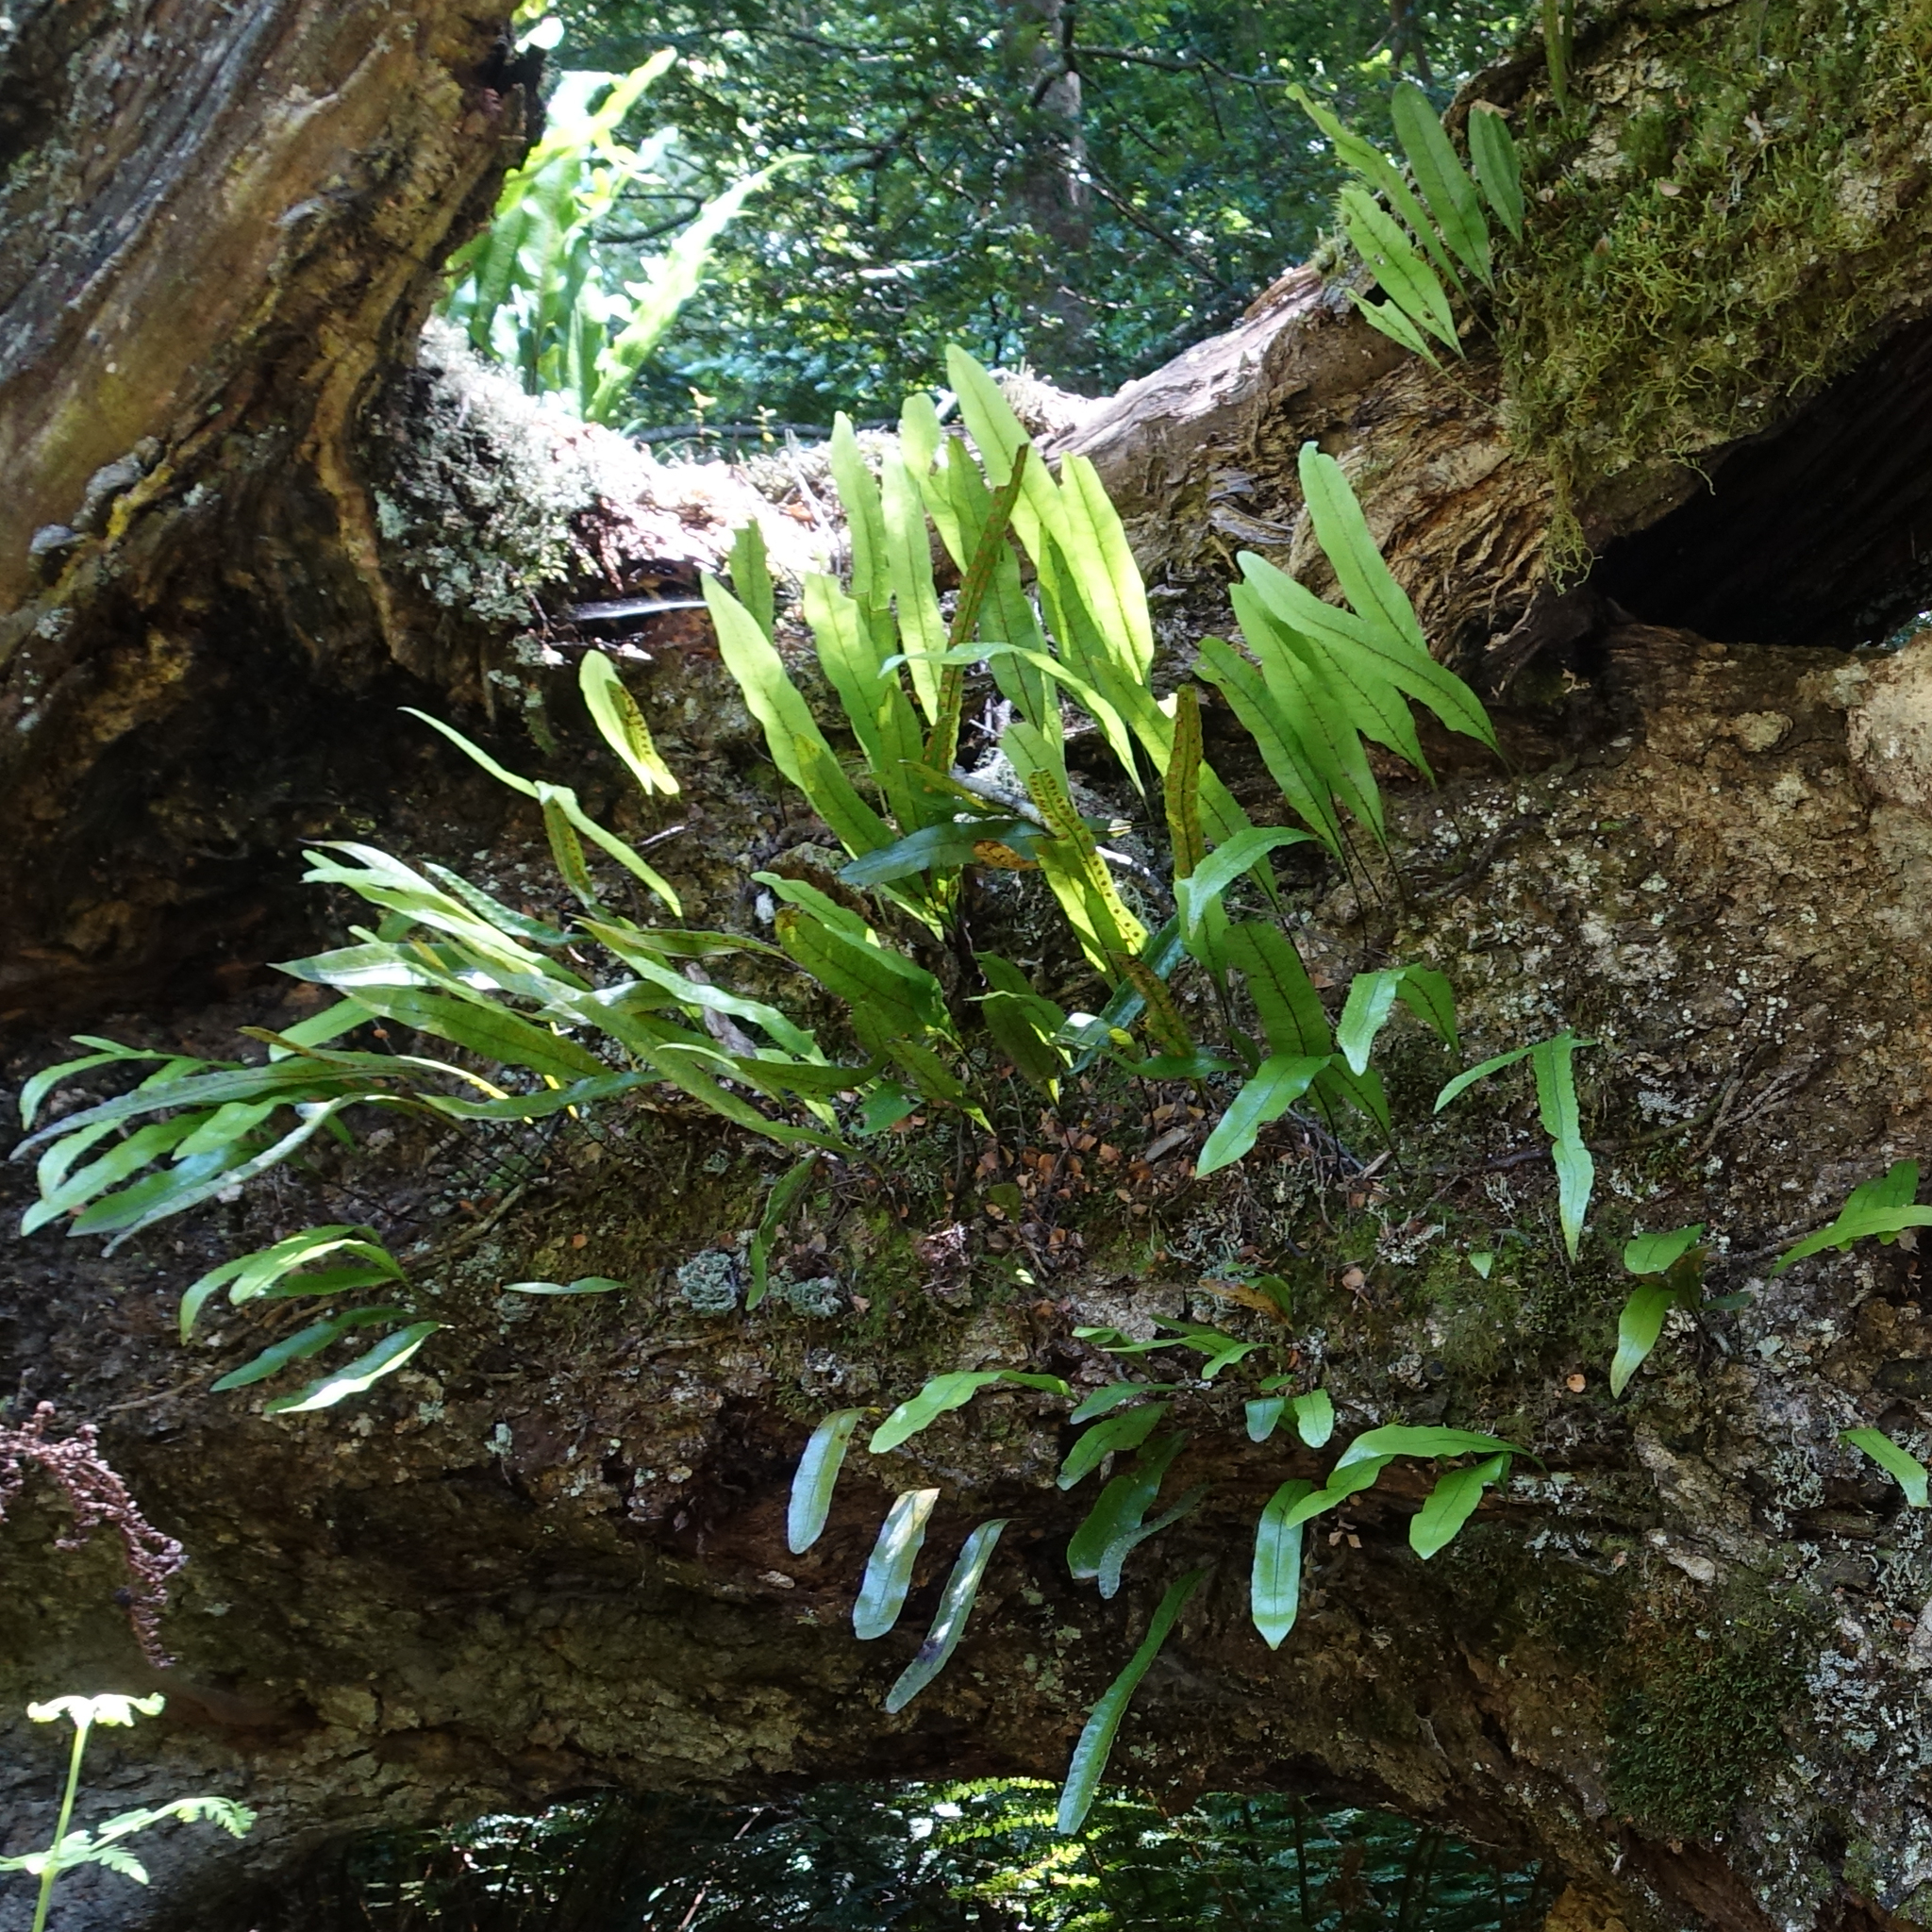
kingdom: Plantae
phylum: Tracheophyta
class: Polypodiopsida
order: Polypodiales
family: Polypodiaceae
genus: Lecanopteris
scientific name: Lecanopteris pustulata
